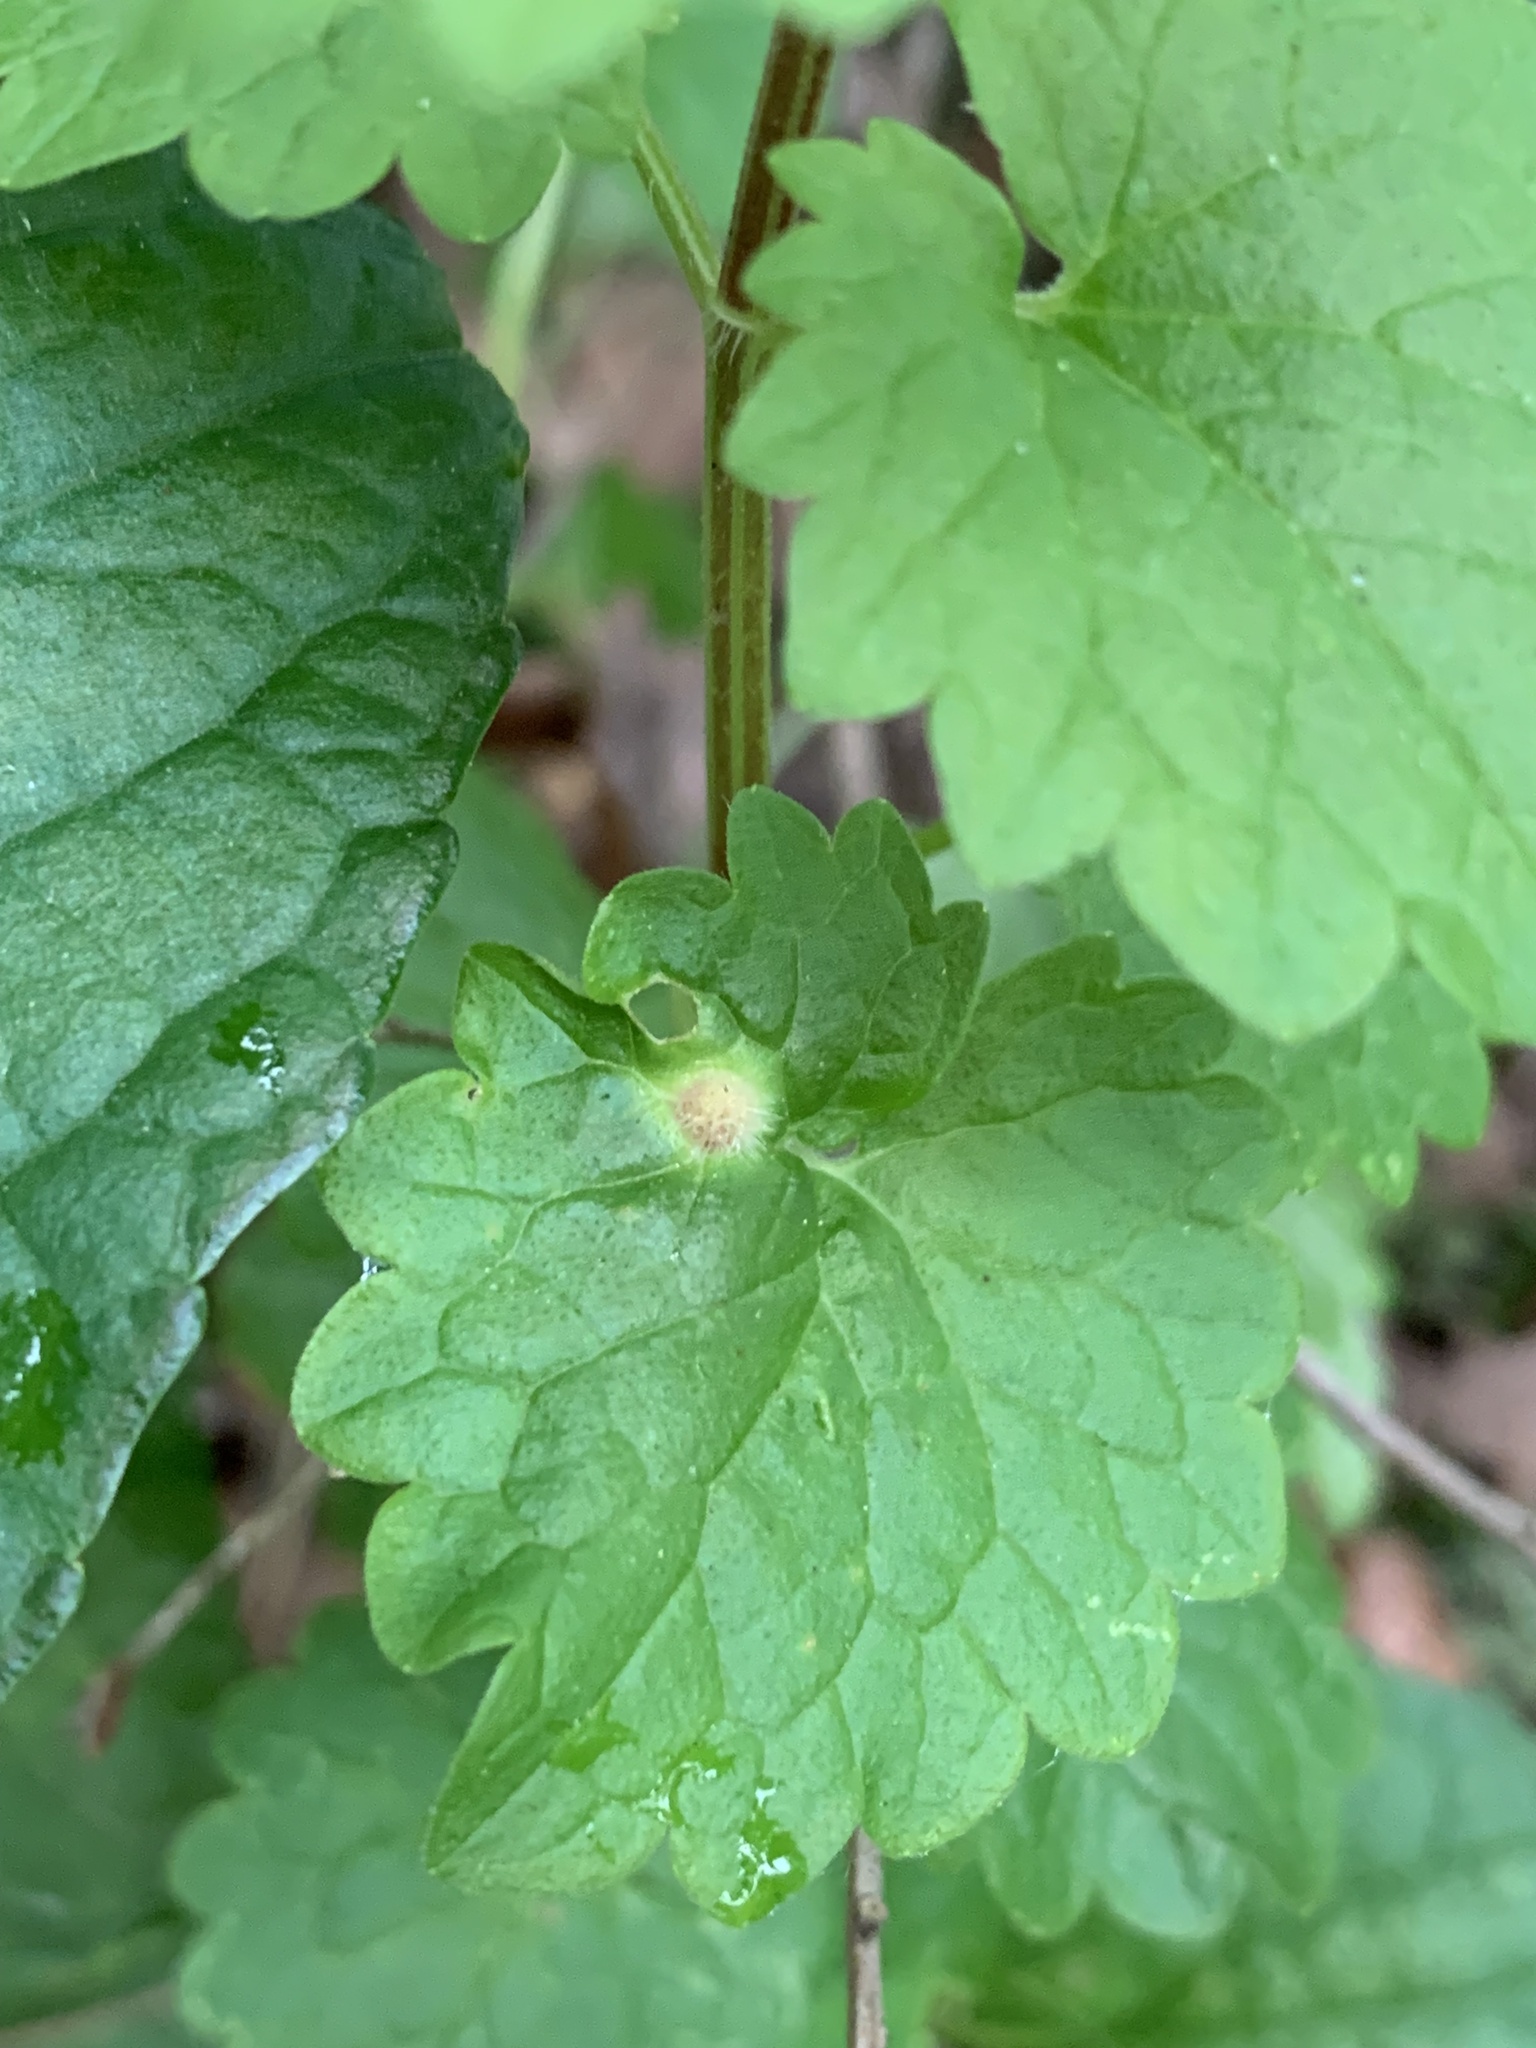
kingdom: Animalia
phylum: Arthropoda
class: Insecta
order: Hymenoptera
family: Cynipidae
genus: Liposthenes
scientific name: Liposthenes glechomae
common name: Gall wasp
